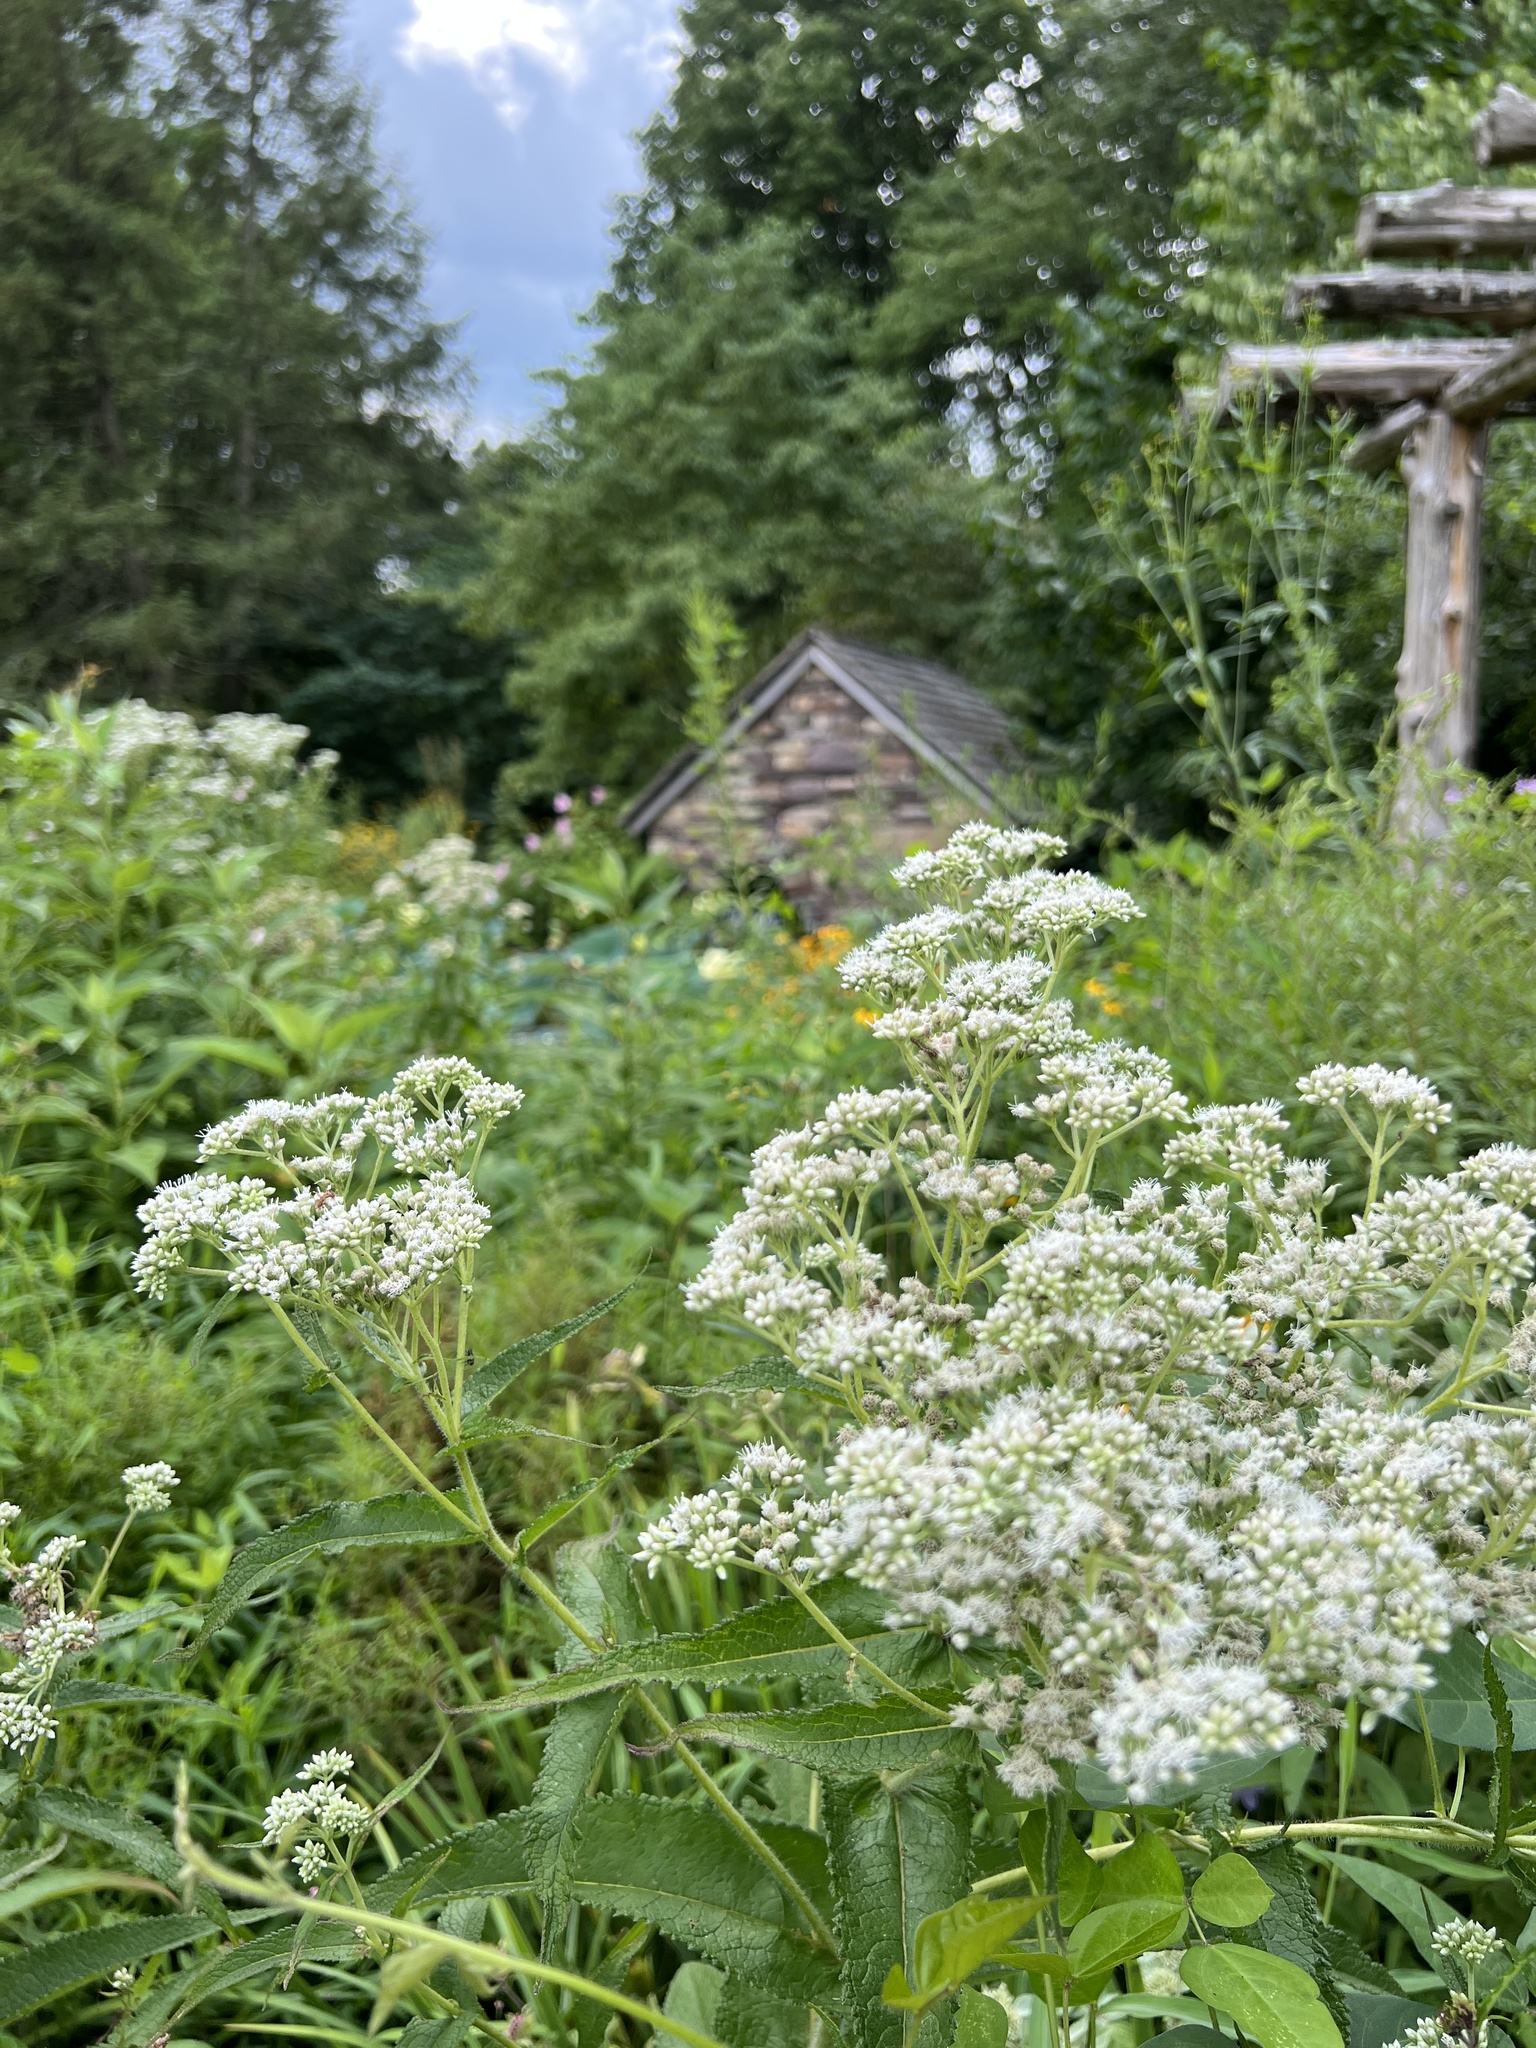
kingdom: Plantae
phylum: Tracheophyta
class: Magnoliopsida
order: Asterales
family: Asteraceae
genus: Eupatorium
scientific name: Eupatorium perfoliatum
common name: Boneset
